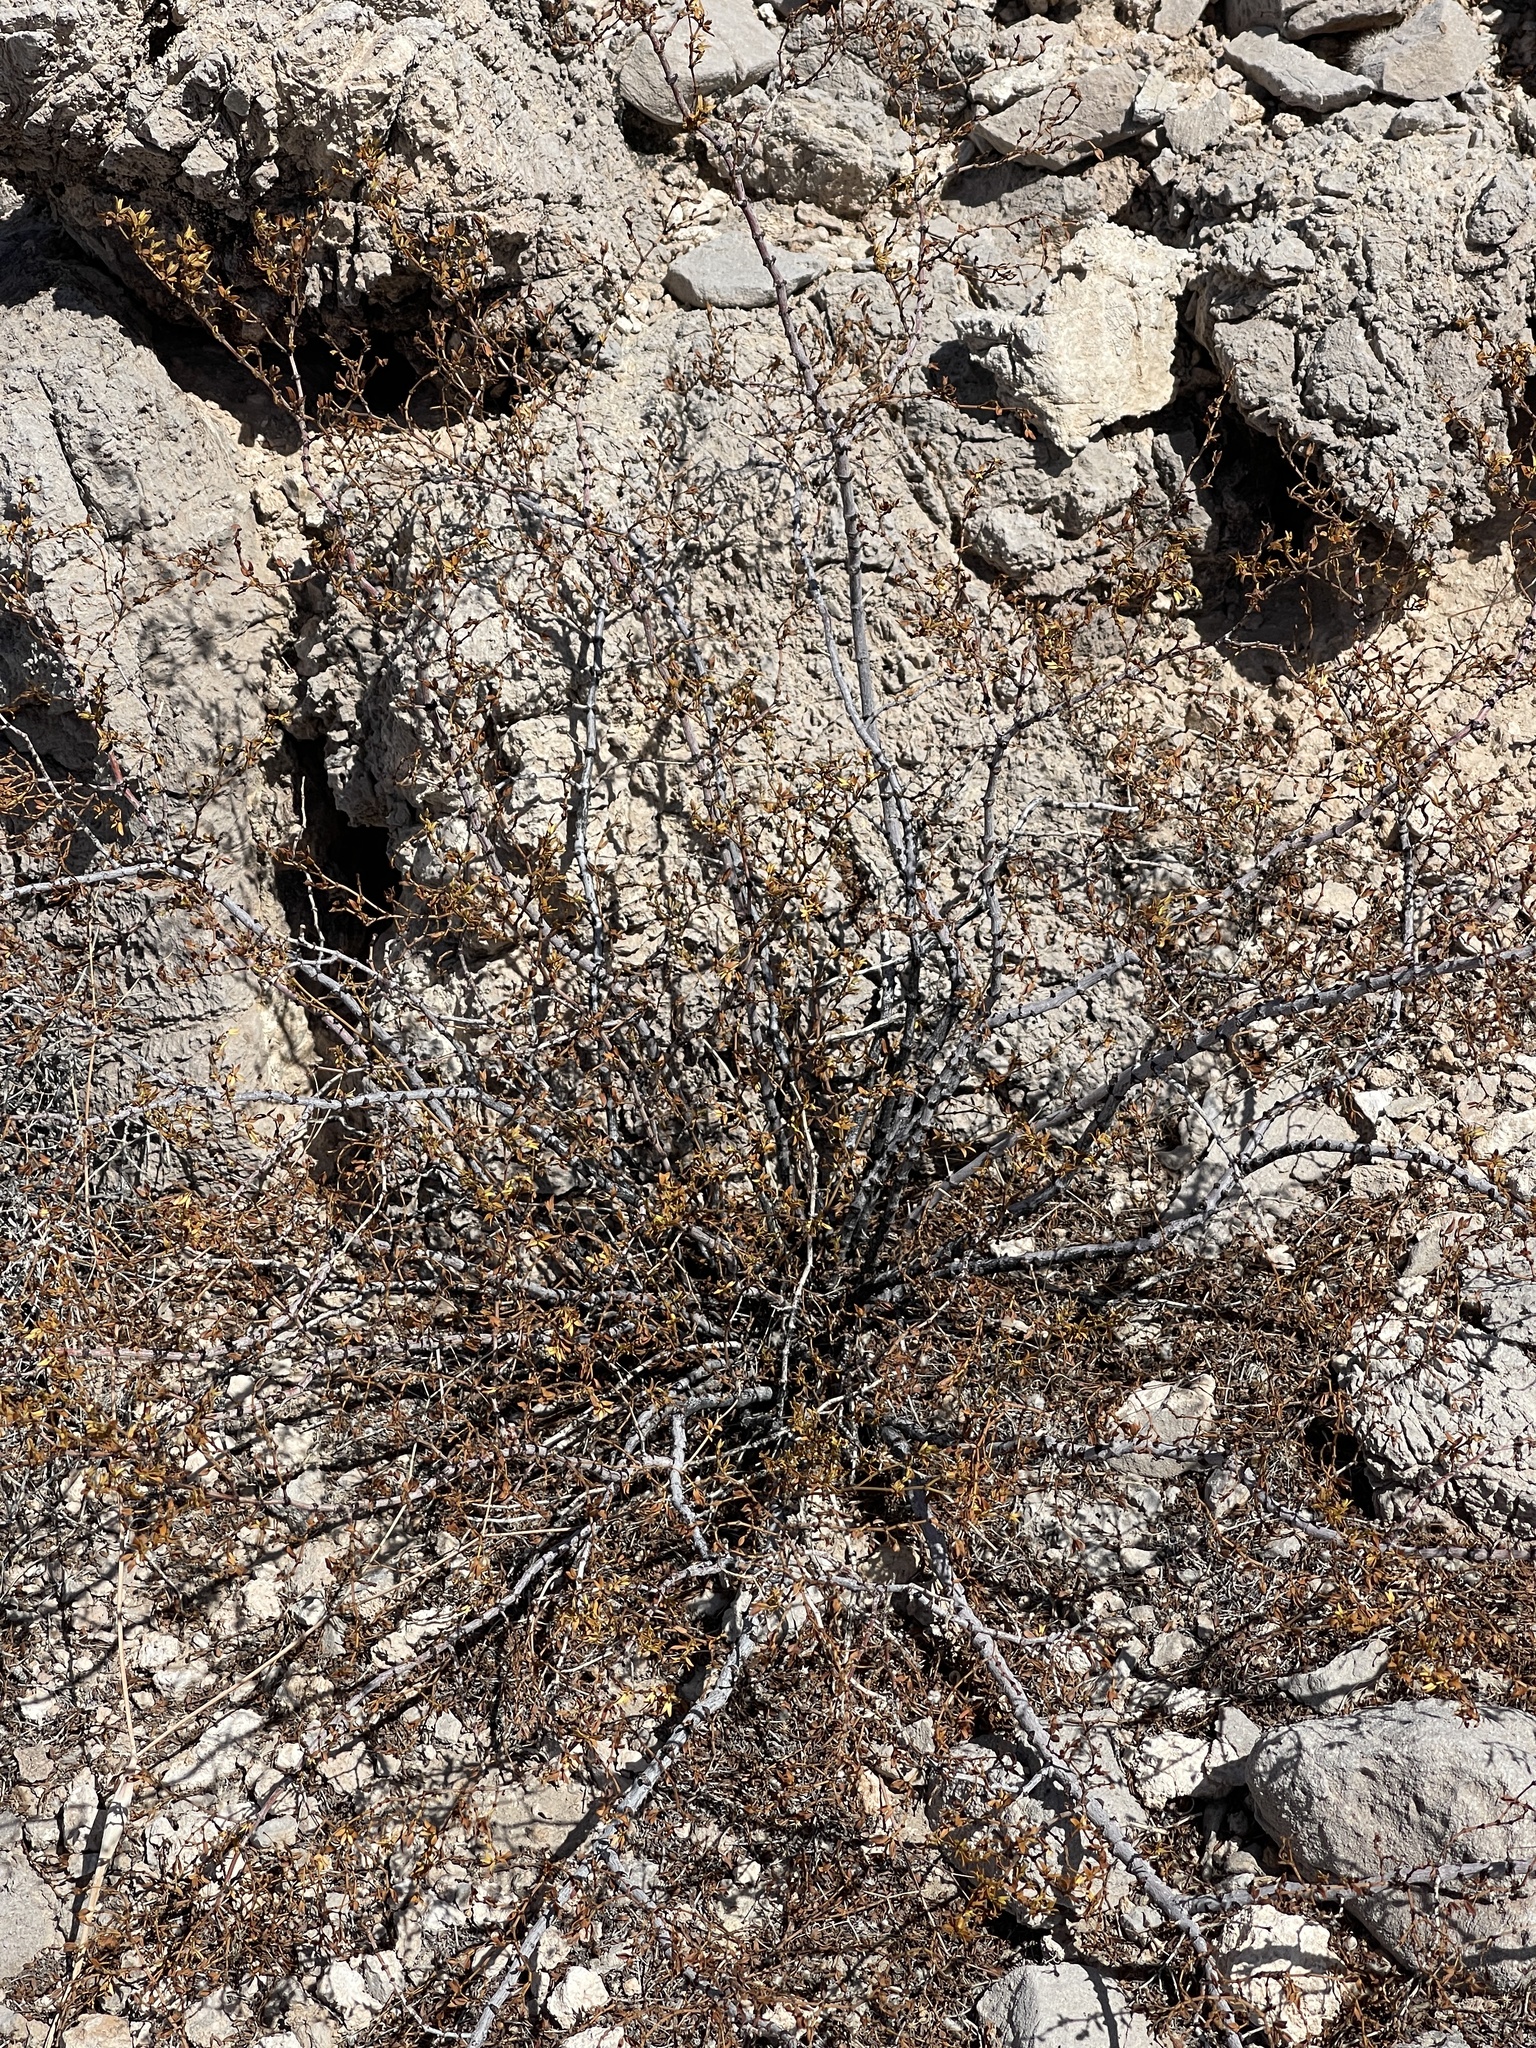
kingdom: Plantae
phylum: Tracheophyta
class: Magnoliopsida
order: Zygophyllales
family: Zygophyllaceae
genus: Larrea
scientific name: Larrea tridentata
